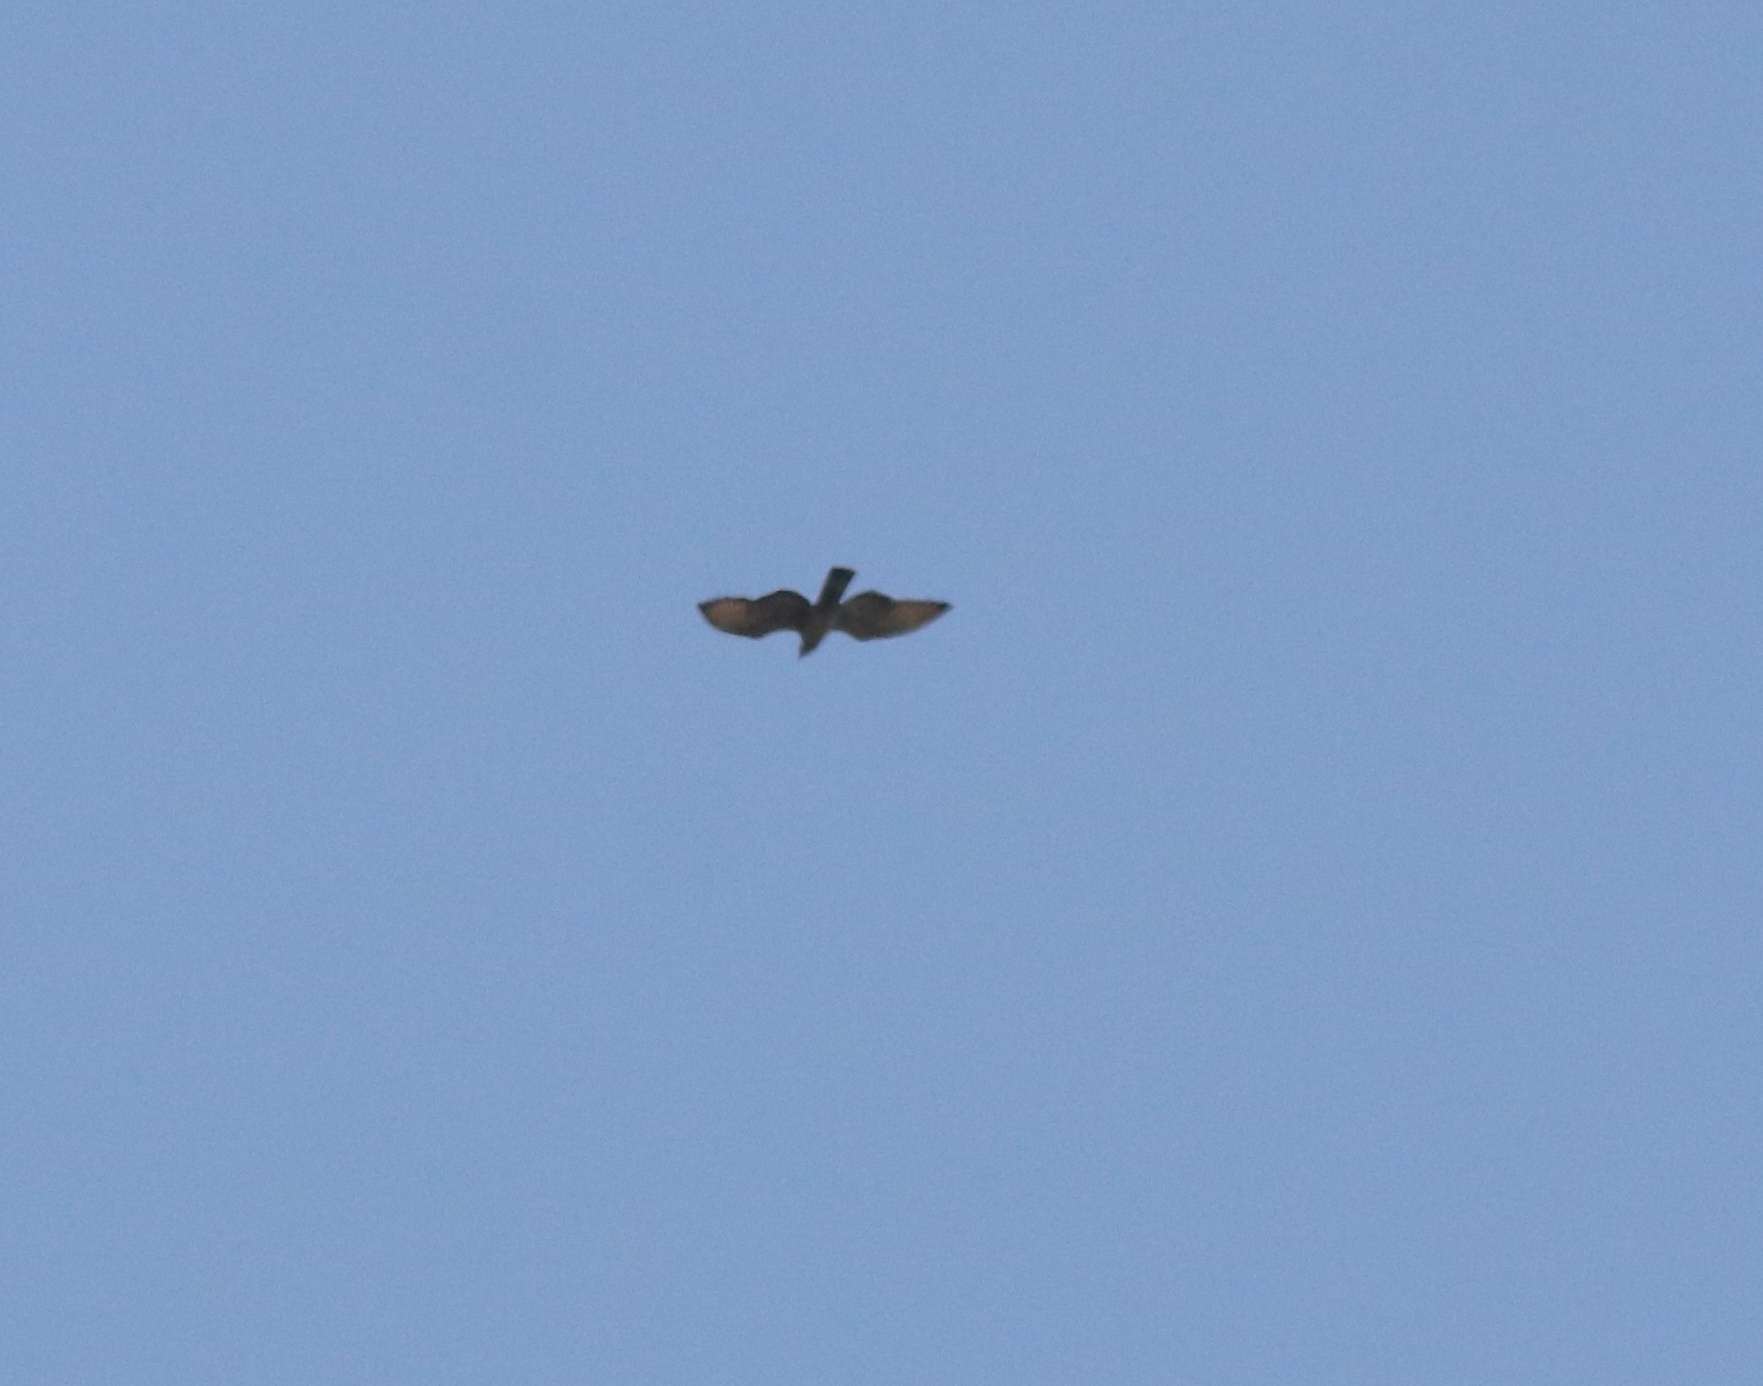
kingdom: Animalia
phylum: Chordata
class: Aves
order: Accipitriformes
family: Accipitridae
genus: Pernis
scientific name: Pernis ptilorhynchus
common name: Crested honey buzzard
